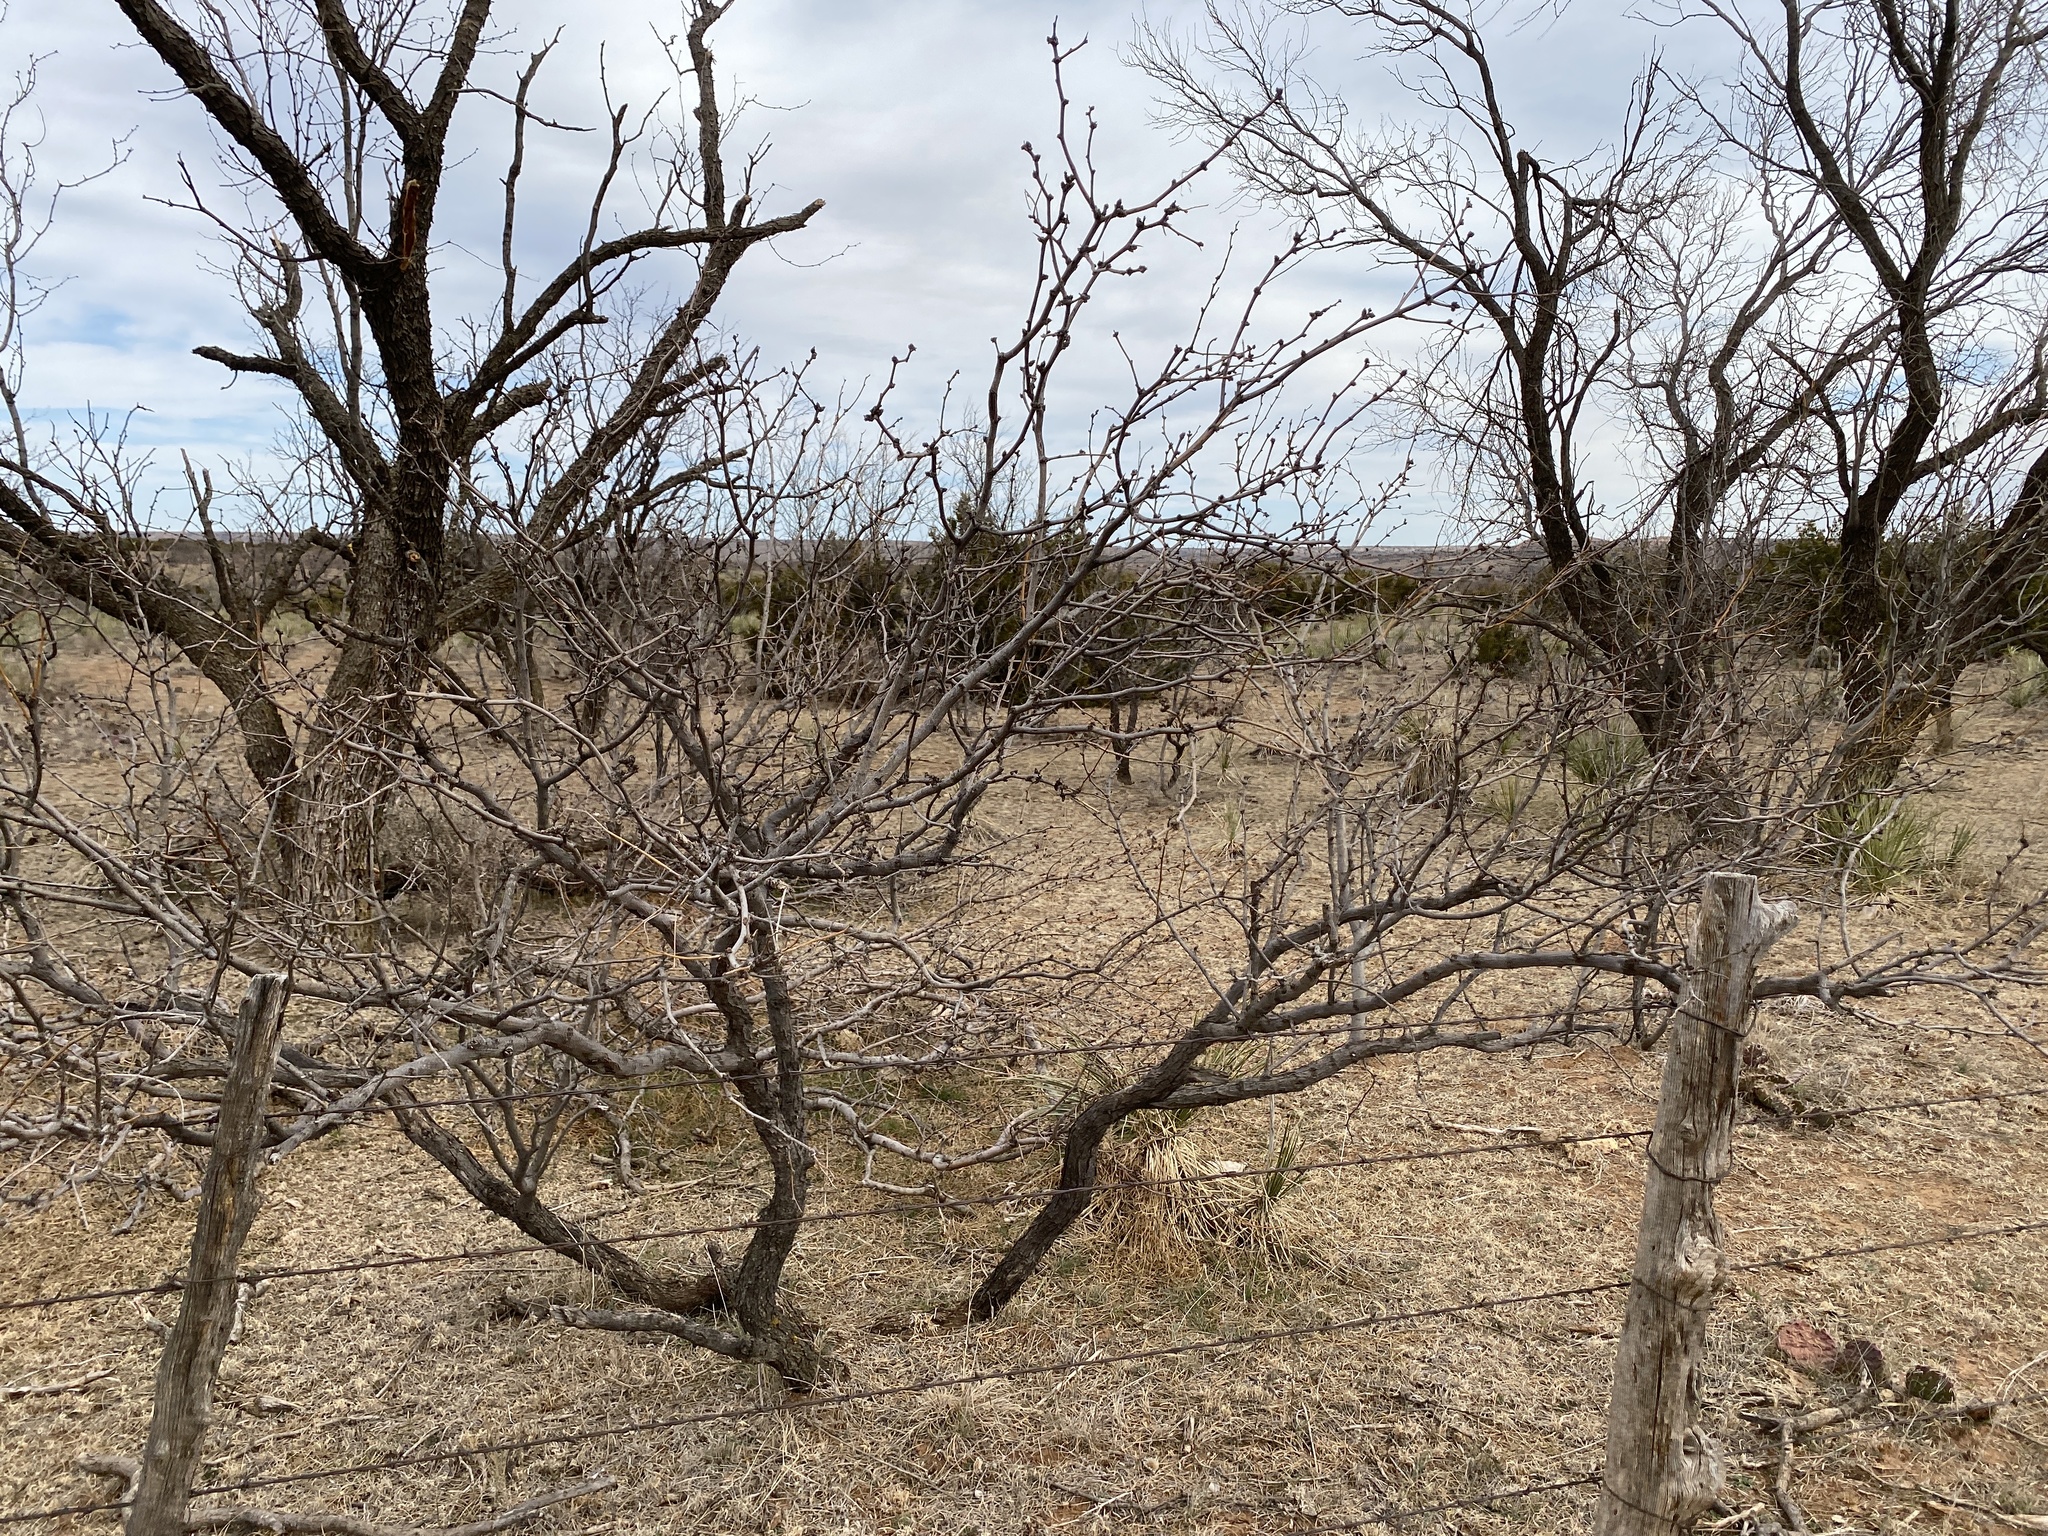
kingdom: Plantae
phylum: Tracheophyta
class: Magnoliopsida
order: Fabales
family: Fabaceae
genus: Prosopis
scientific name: Prosopis glandulosa
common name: Honey mesquite
